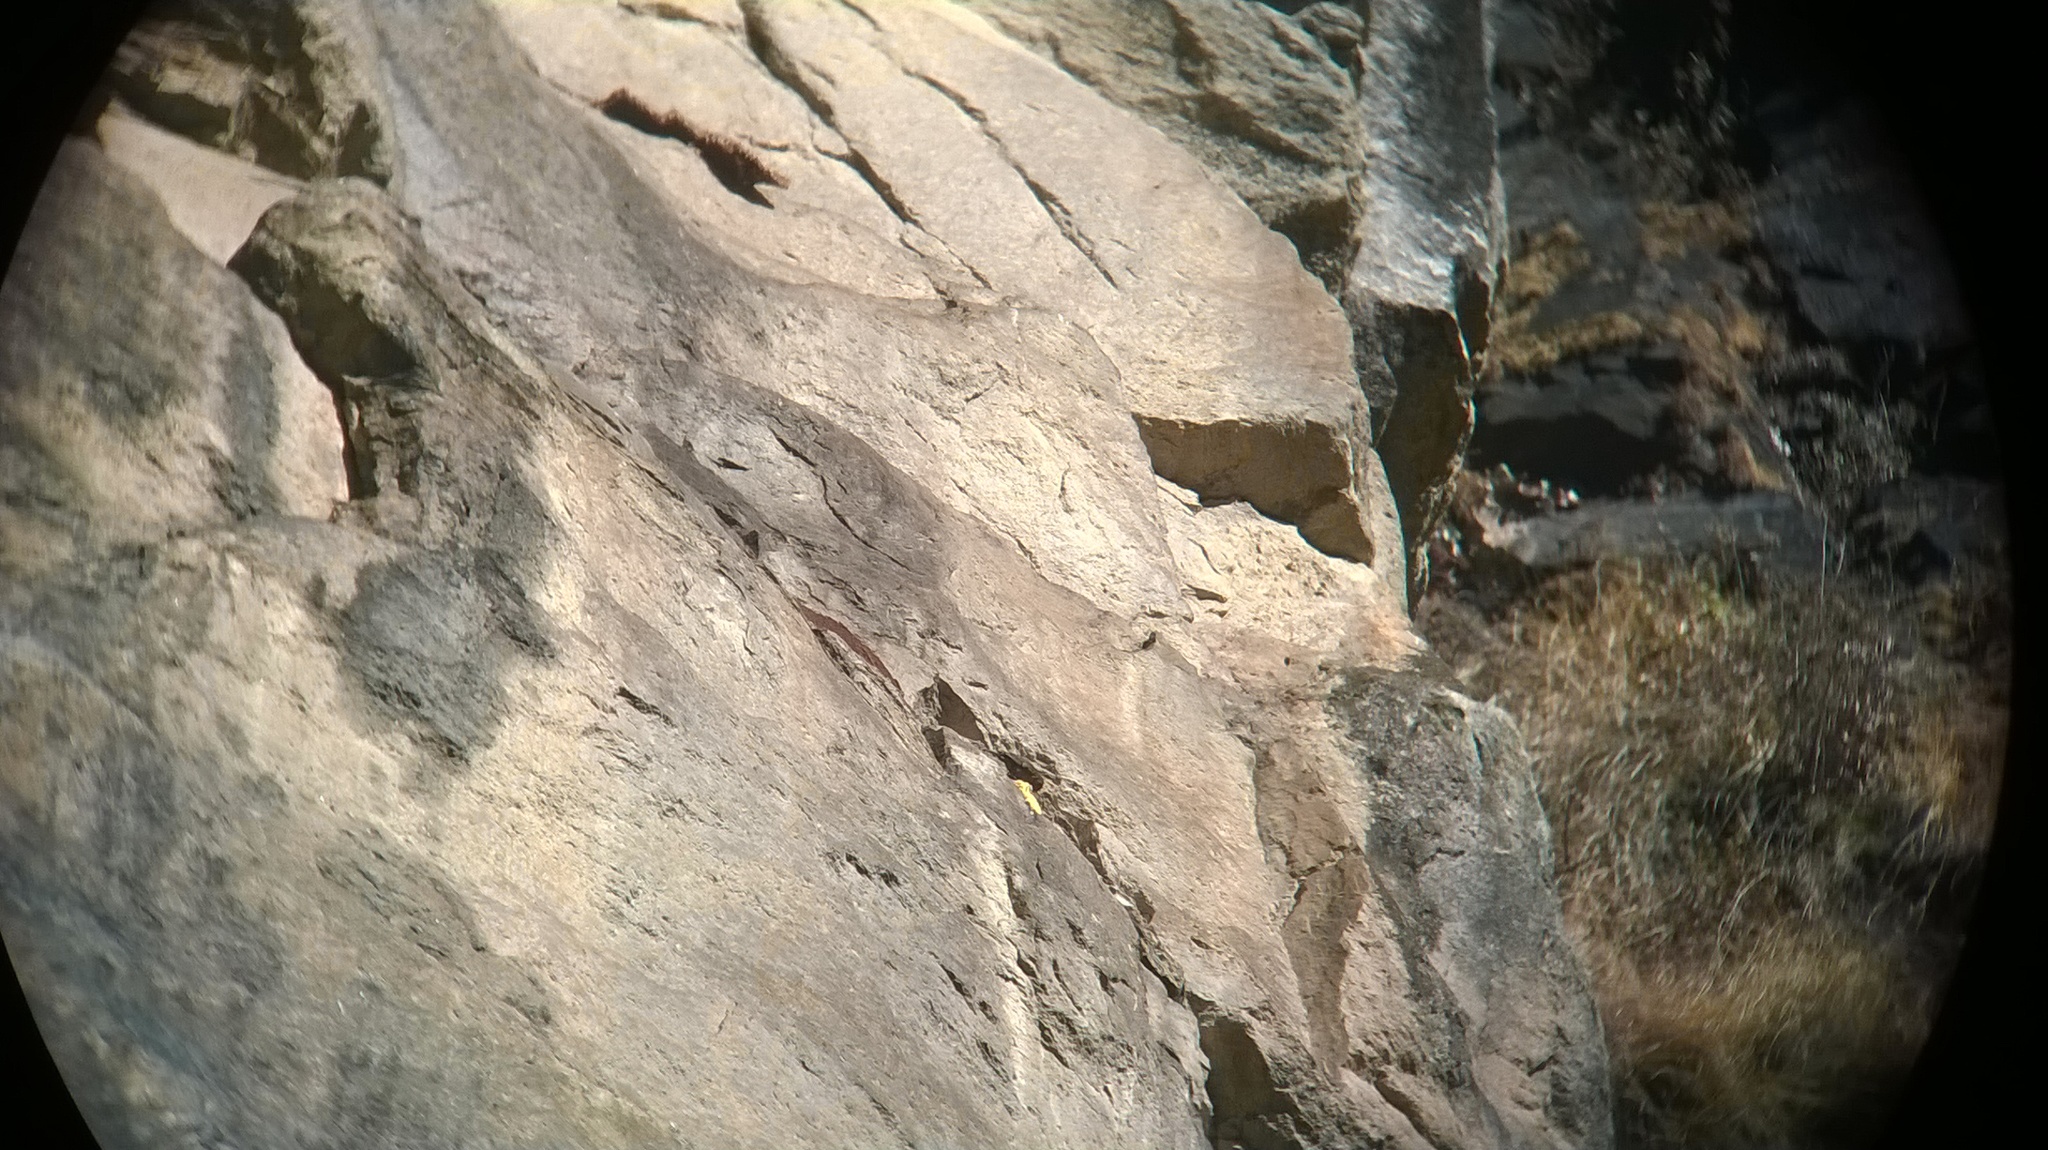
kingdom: Animalia
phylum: Chordata
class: Aves
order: Piciformes
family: Indicatoridae
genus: Indicator
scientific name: Indicator xanthonotus
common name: Yellow-rumped honeyguide
